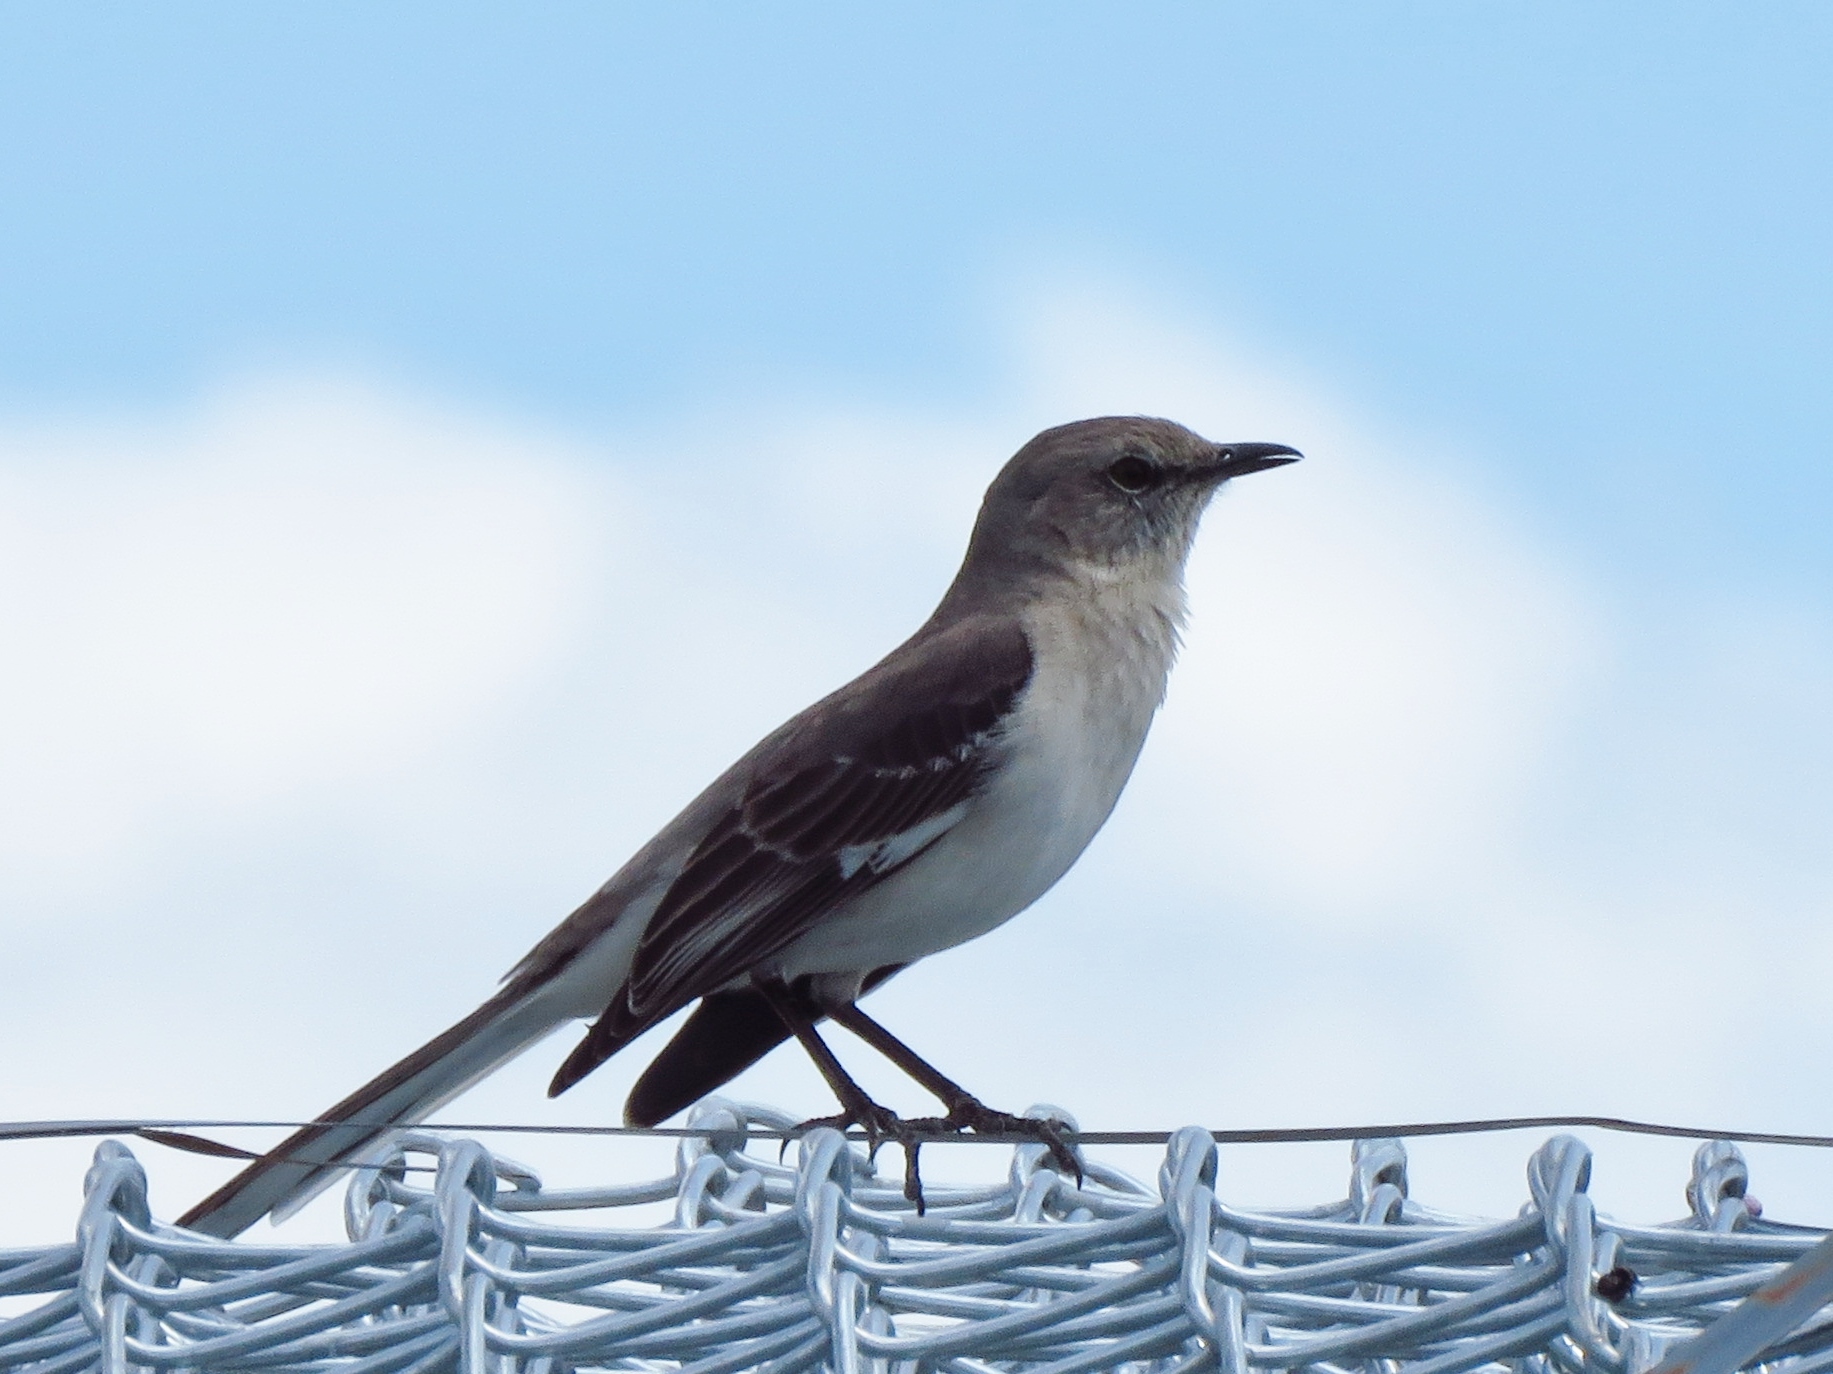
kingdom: Animalia
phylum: Chordata
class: Aves
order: Passeriformes
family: Mimidae
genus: Mimus
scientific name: Mimus polyglottos
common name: Northern mockingbird
